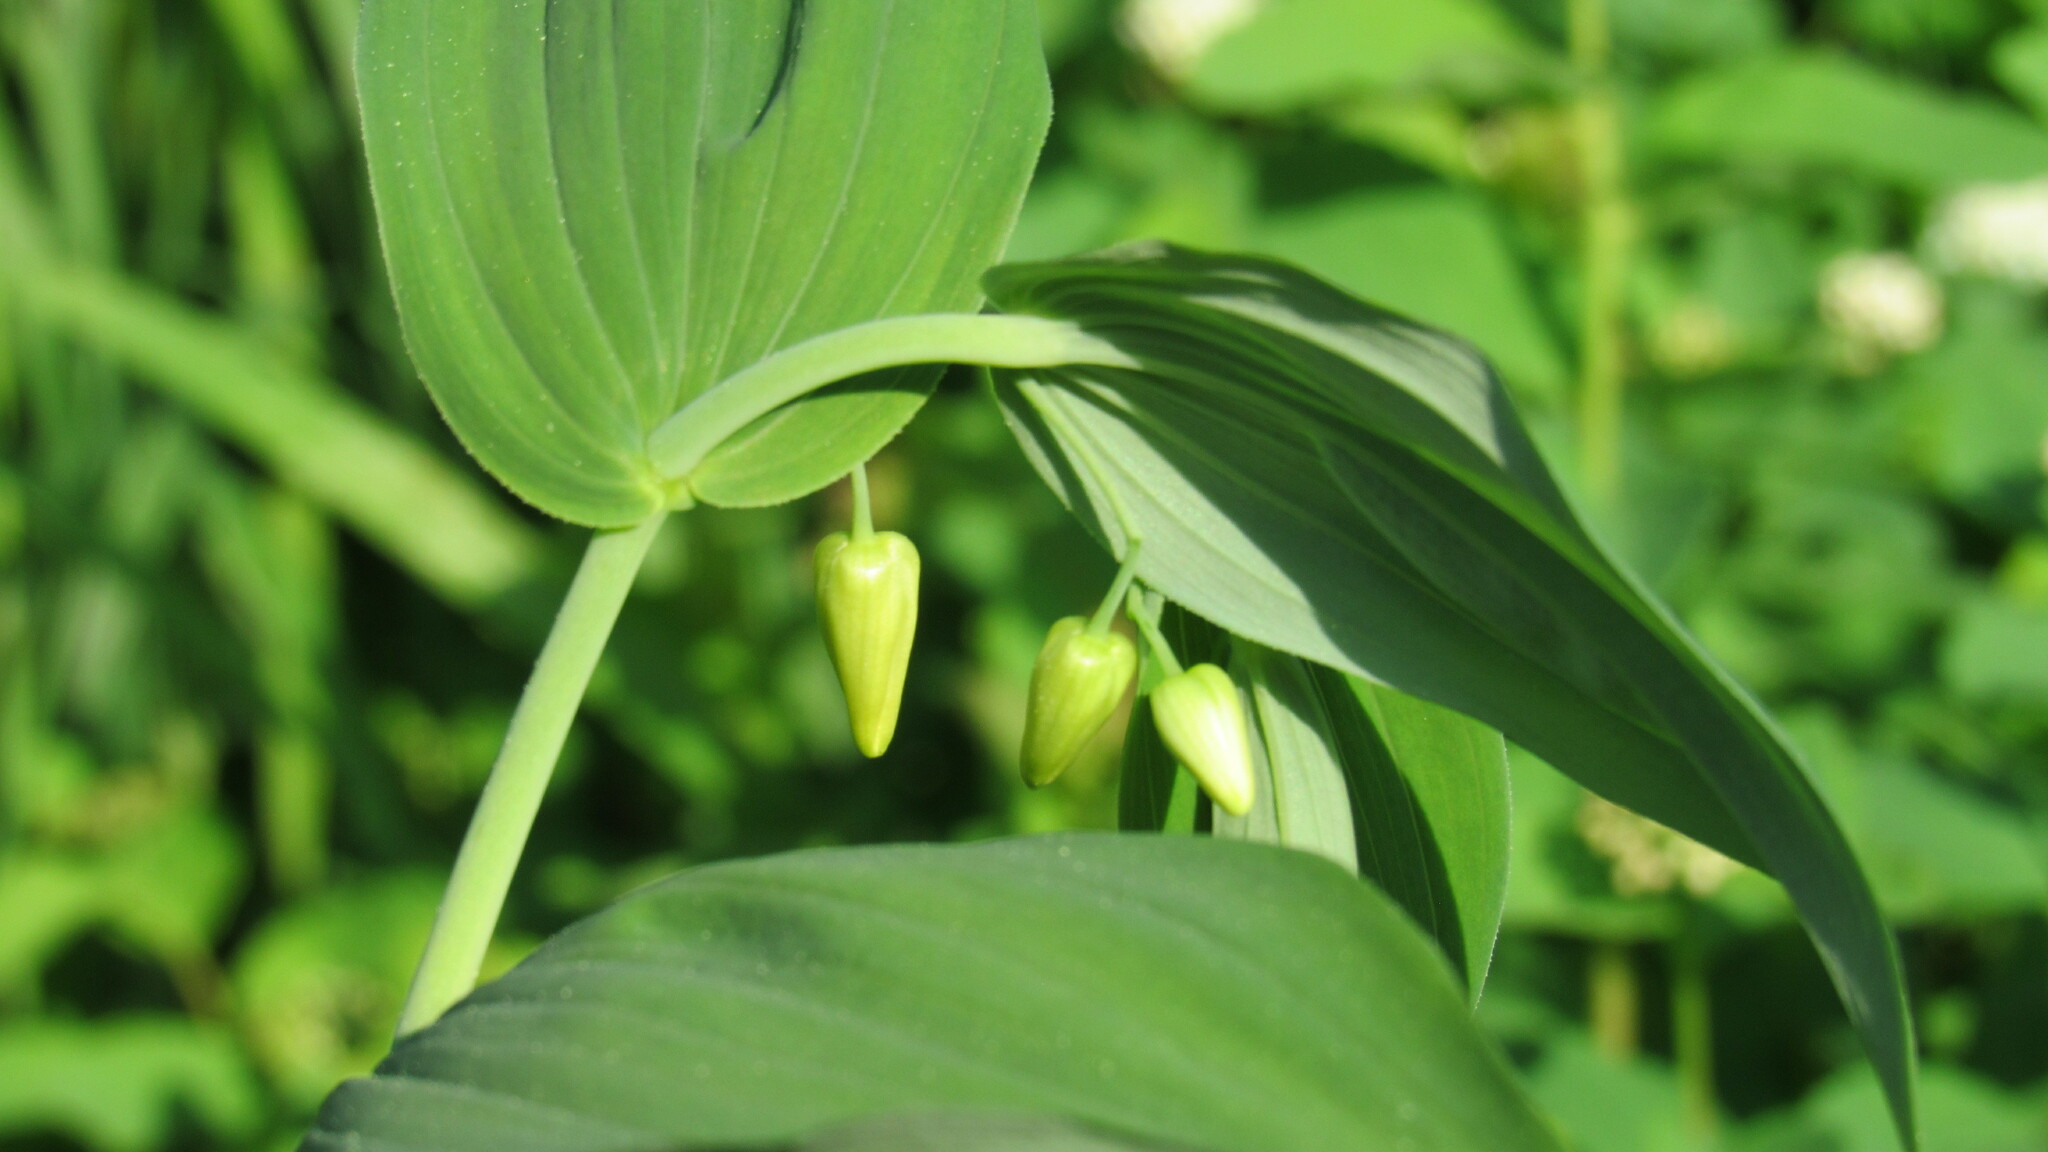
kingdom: Plantae
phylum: Tracheophyta
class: Liliopsida
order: Liliales
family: Liliaceae
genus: Streptopus
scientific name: Streptopus amplexifolius
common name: Clasp twisted stalk
